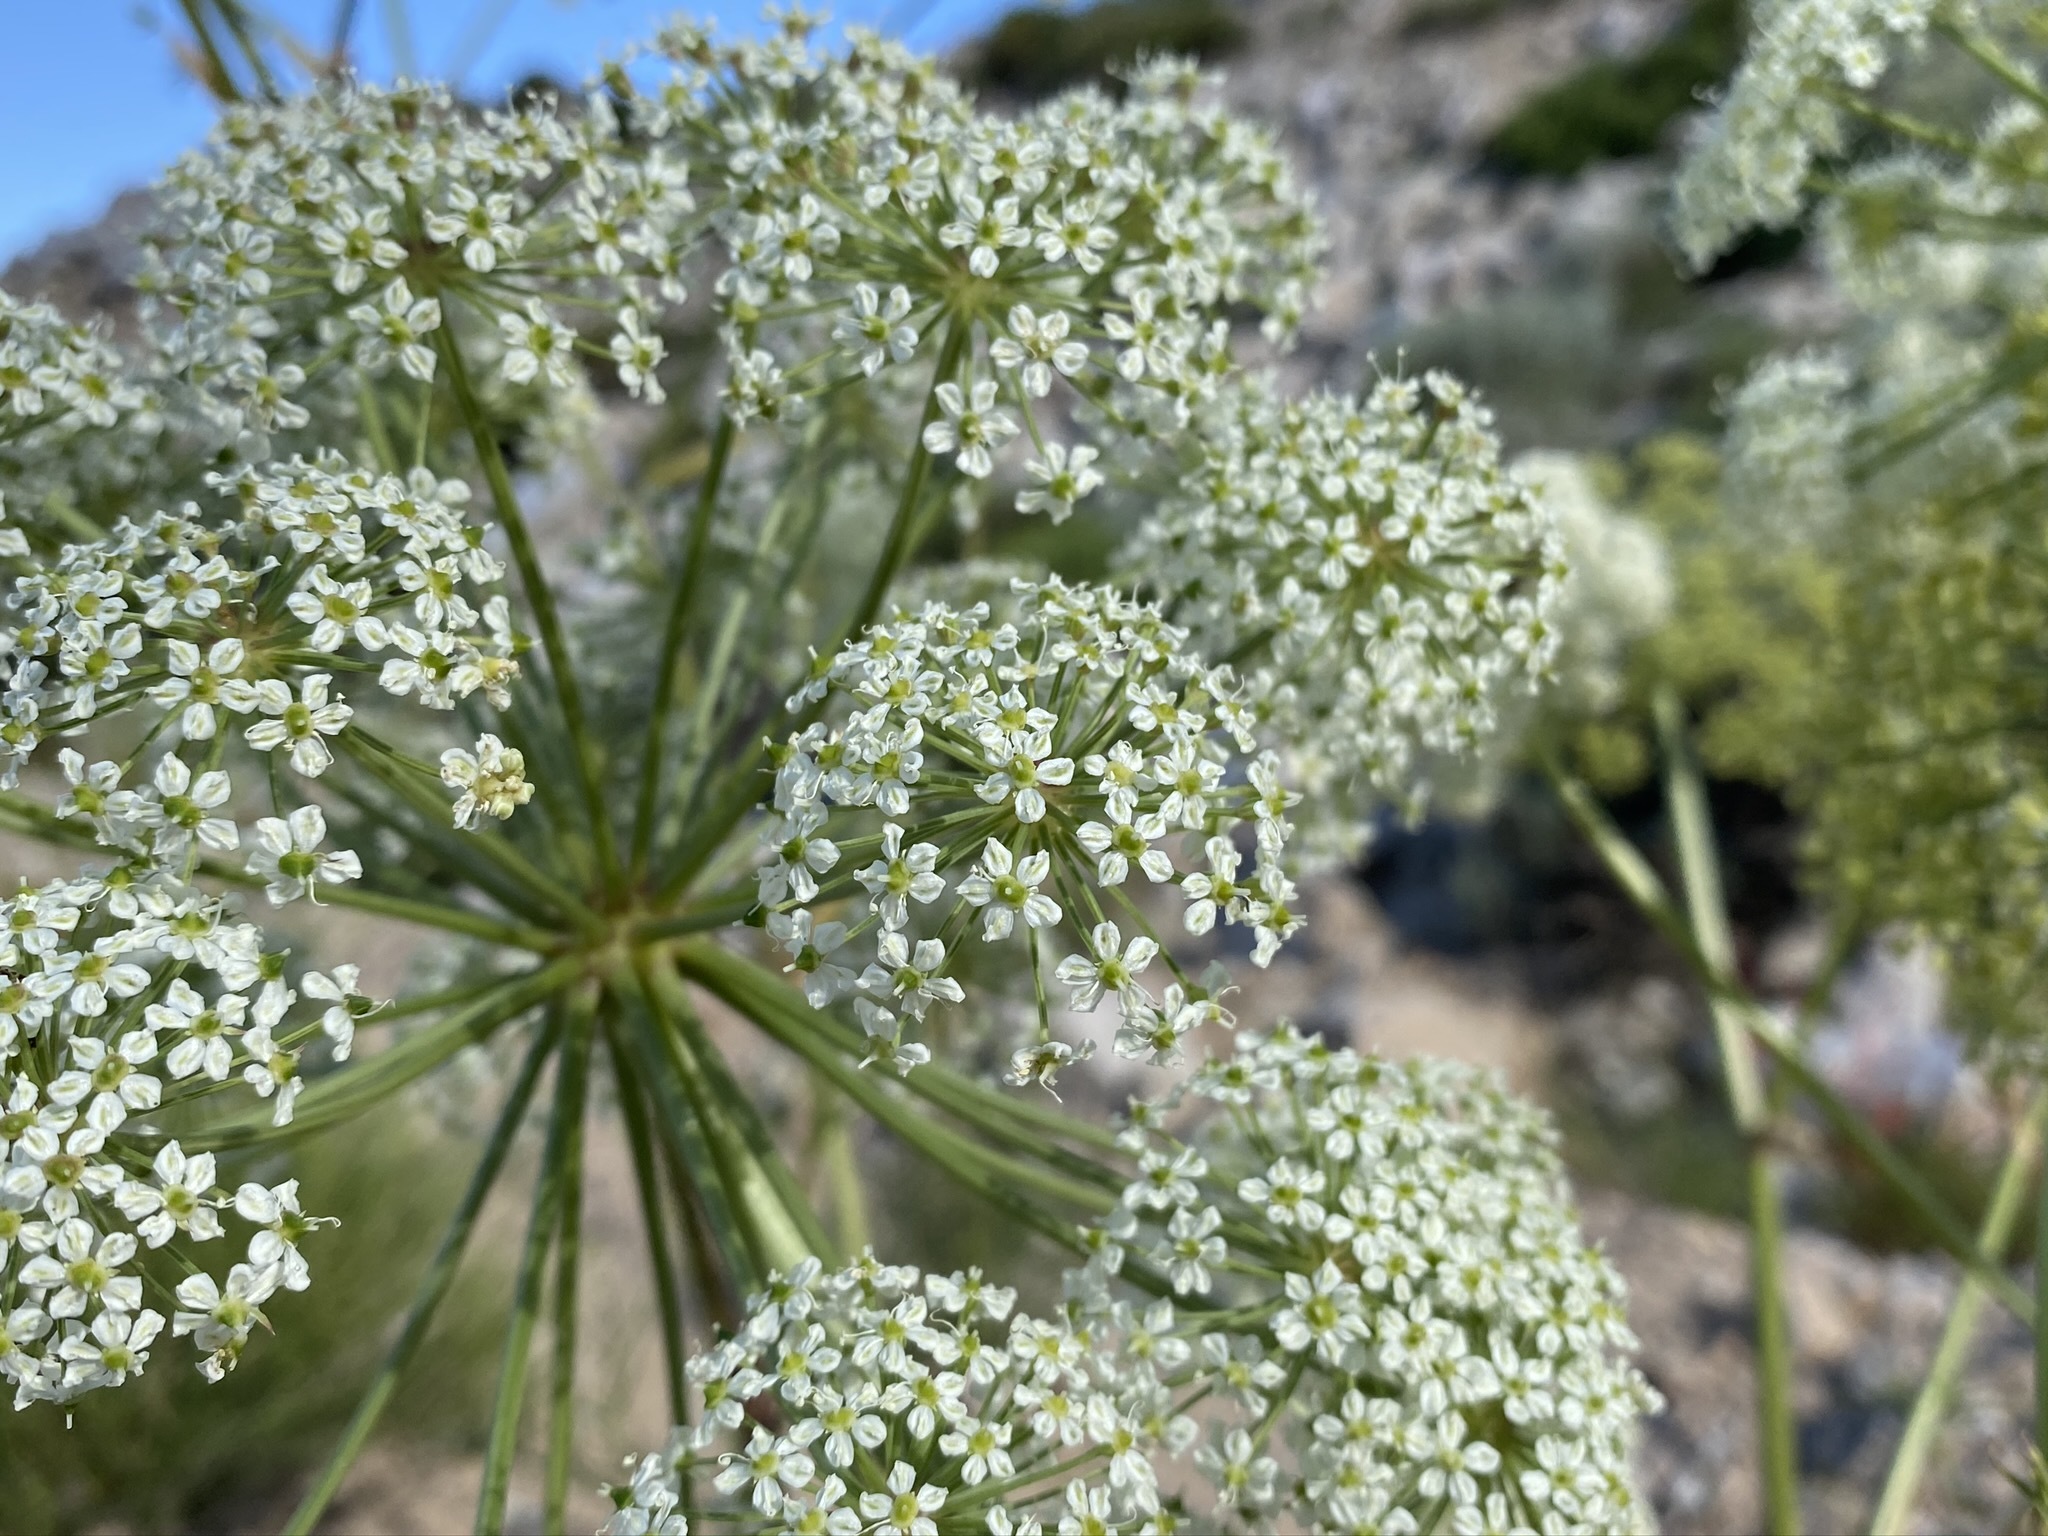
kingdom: Plantae
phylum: Tracheophyta
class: Magnoliopsida
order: Apiales
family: Apiaceae
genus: Angelica
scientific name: Angelica lineariloba
